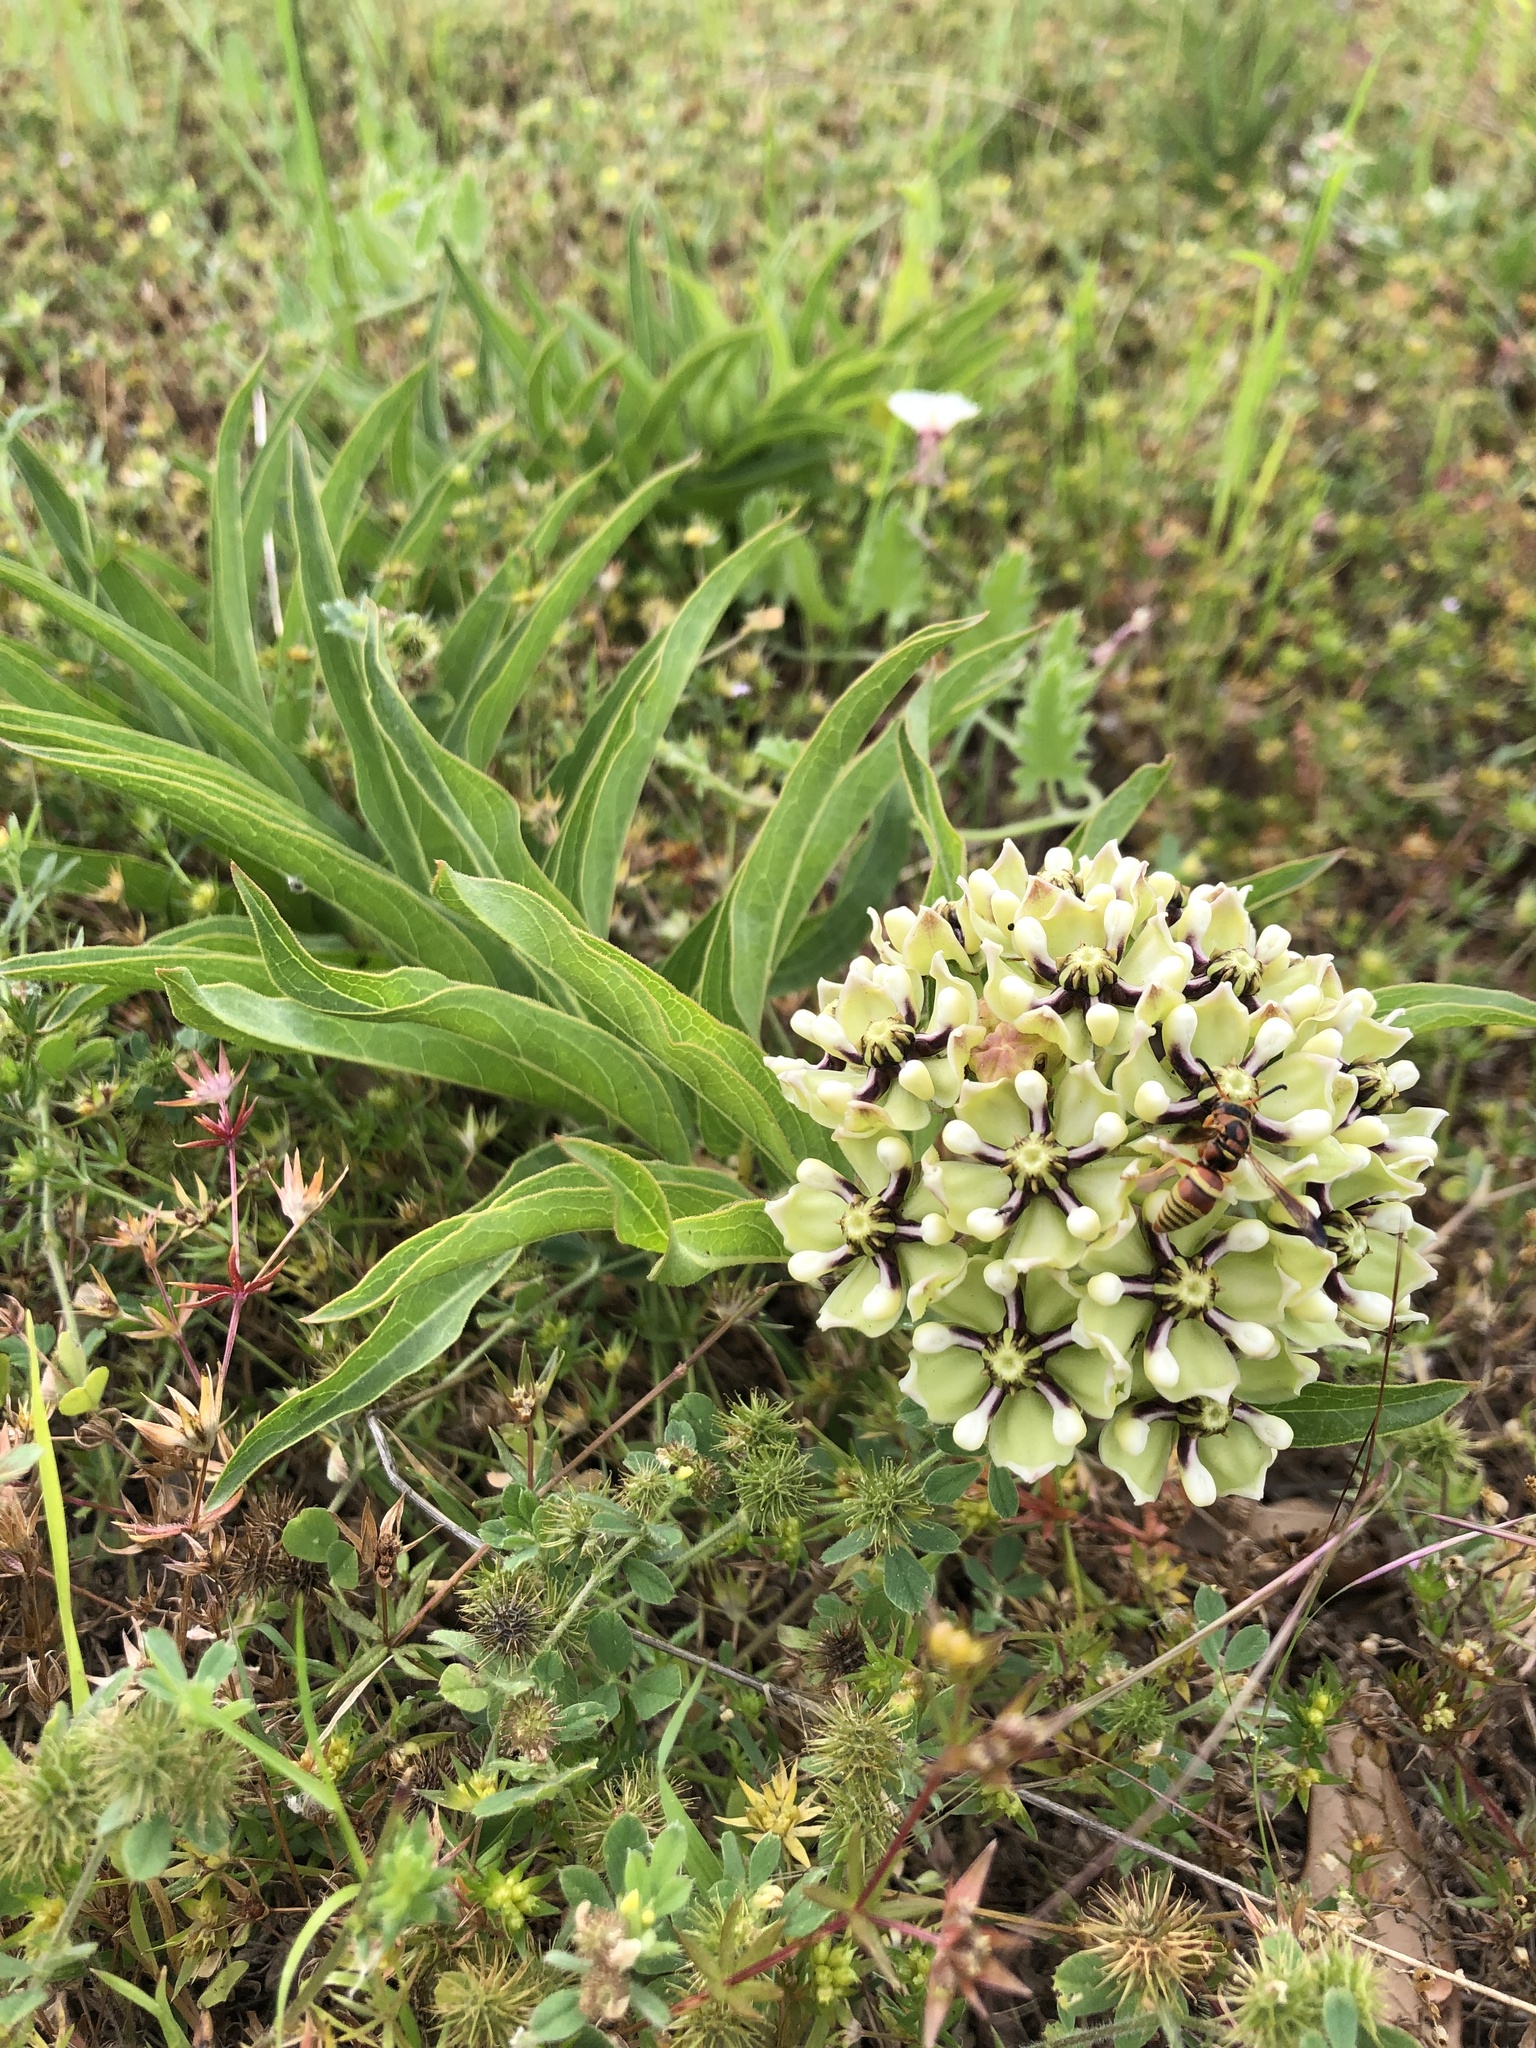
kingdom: Plantae
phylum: Tracheophyta
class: Magnoliopsida
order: Gentianales
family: Apocynaceae
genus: Asclepias
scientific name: Asclepias asperula
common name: Antelope horns
